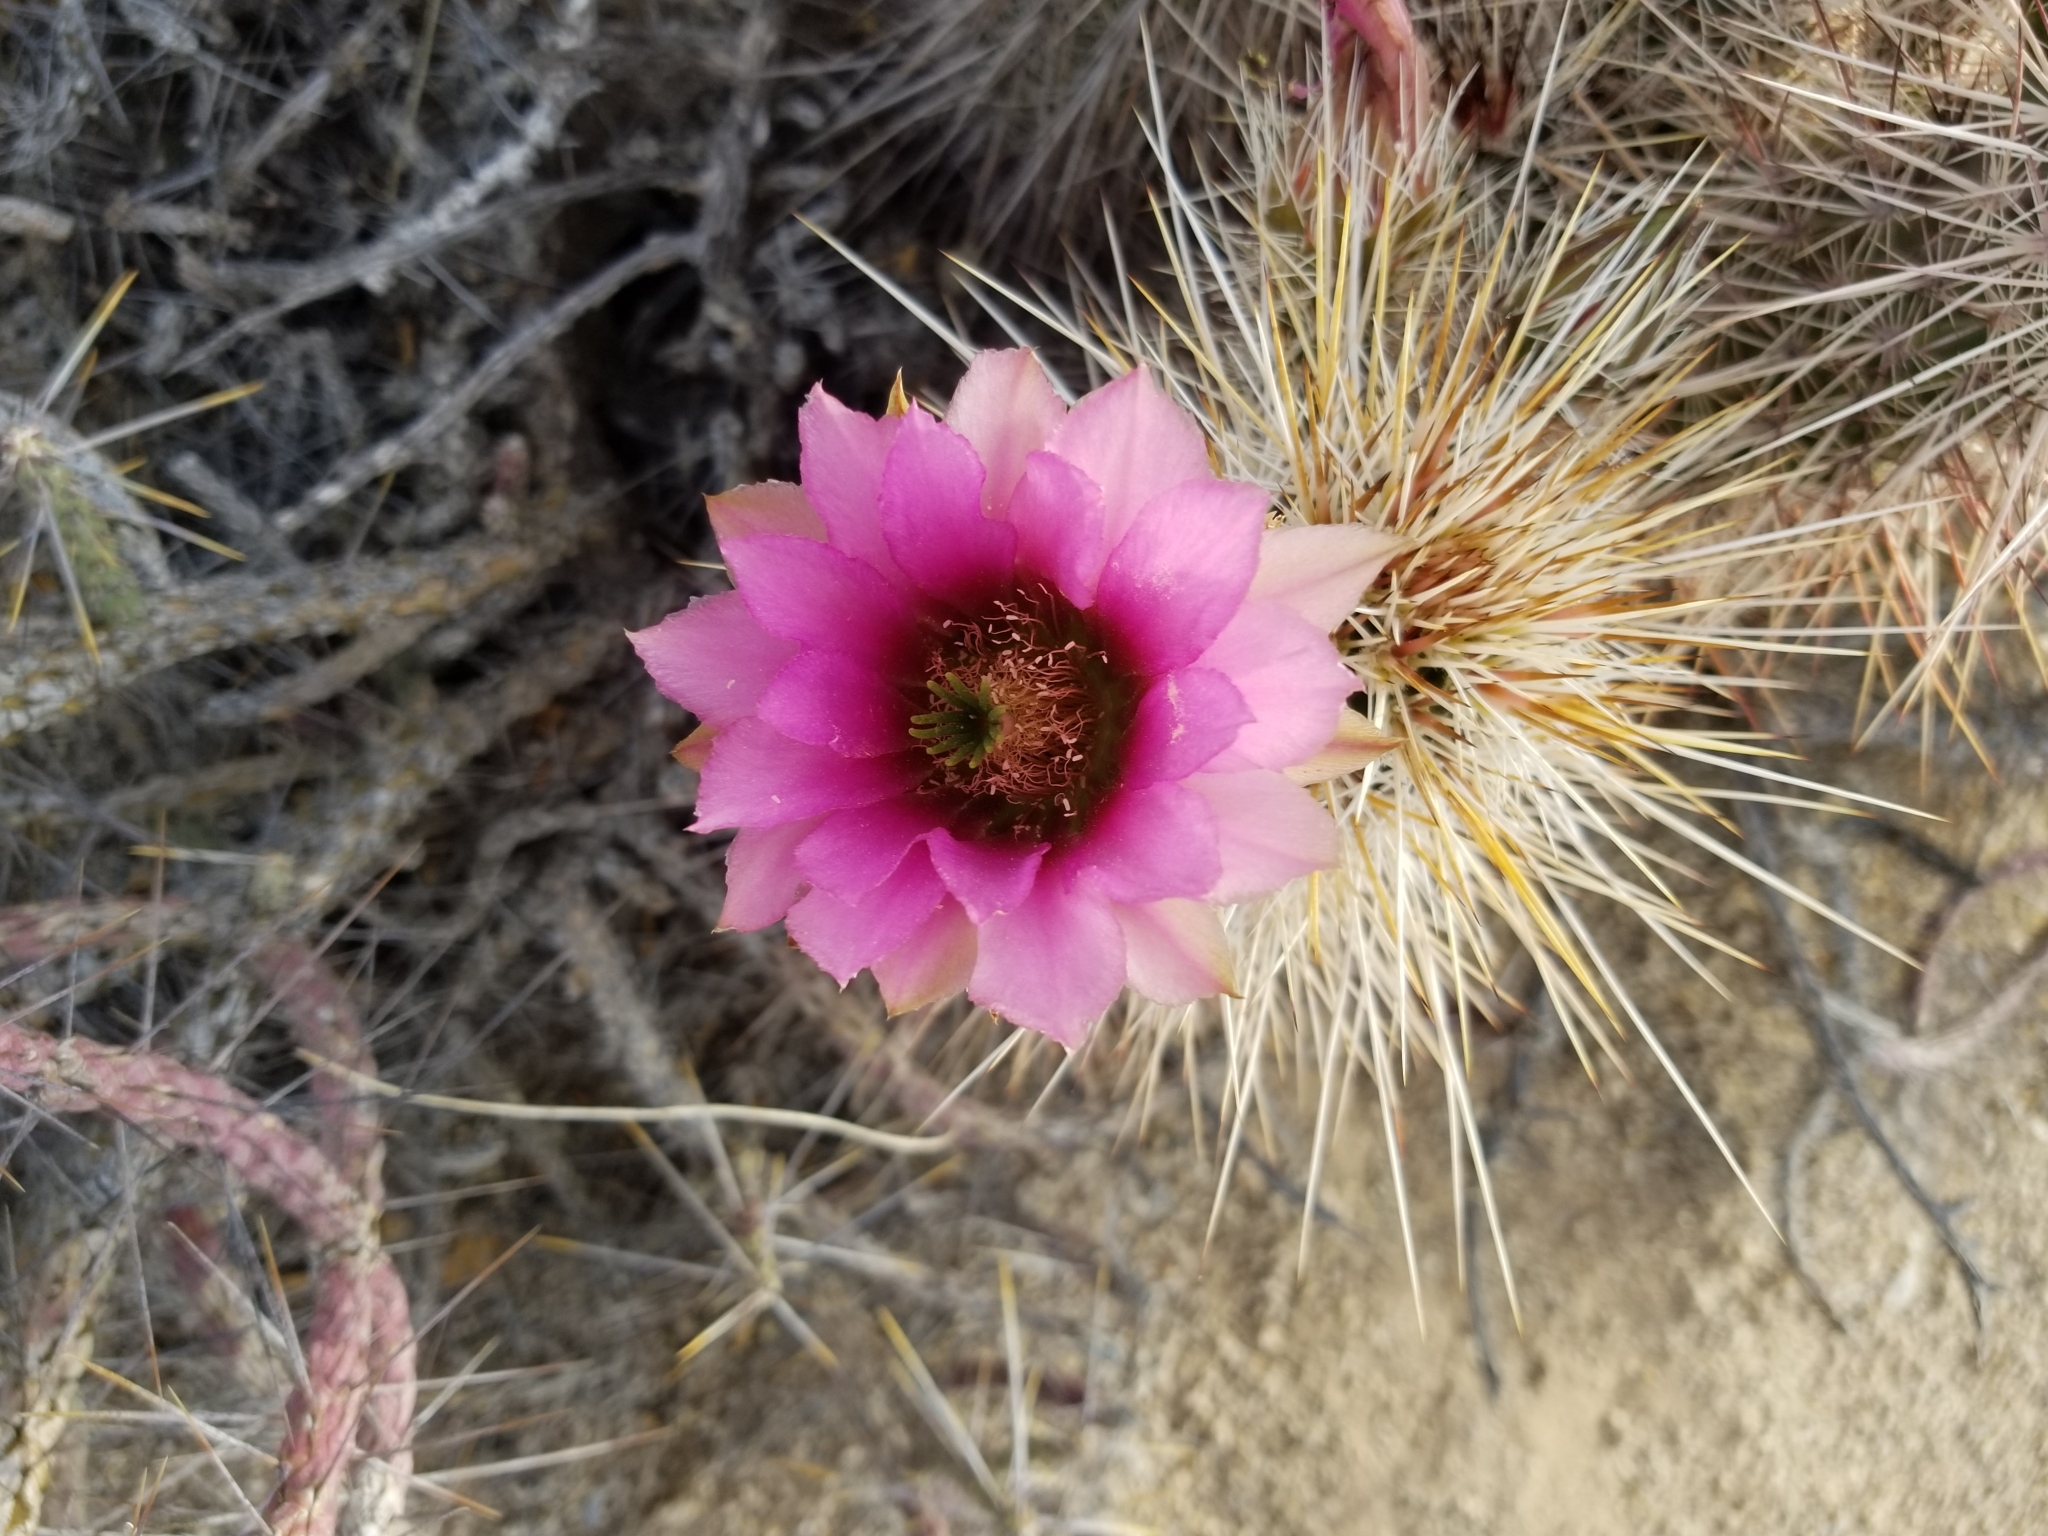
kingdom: Plantae
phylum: Tracheophyta
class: Magnoliopsida
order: Caryophyllales
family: Cactaceae
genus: Echinocereus
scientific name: Echinocereus engelmannii
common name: Engelmann's hedgehog cactus
